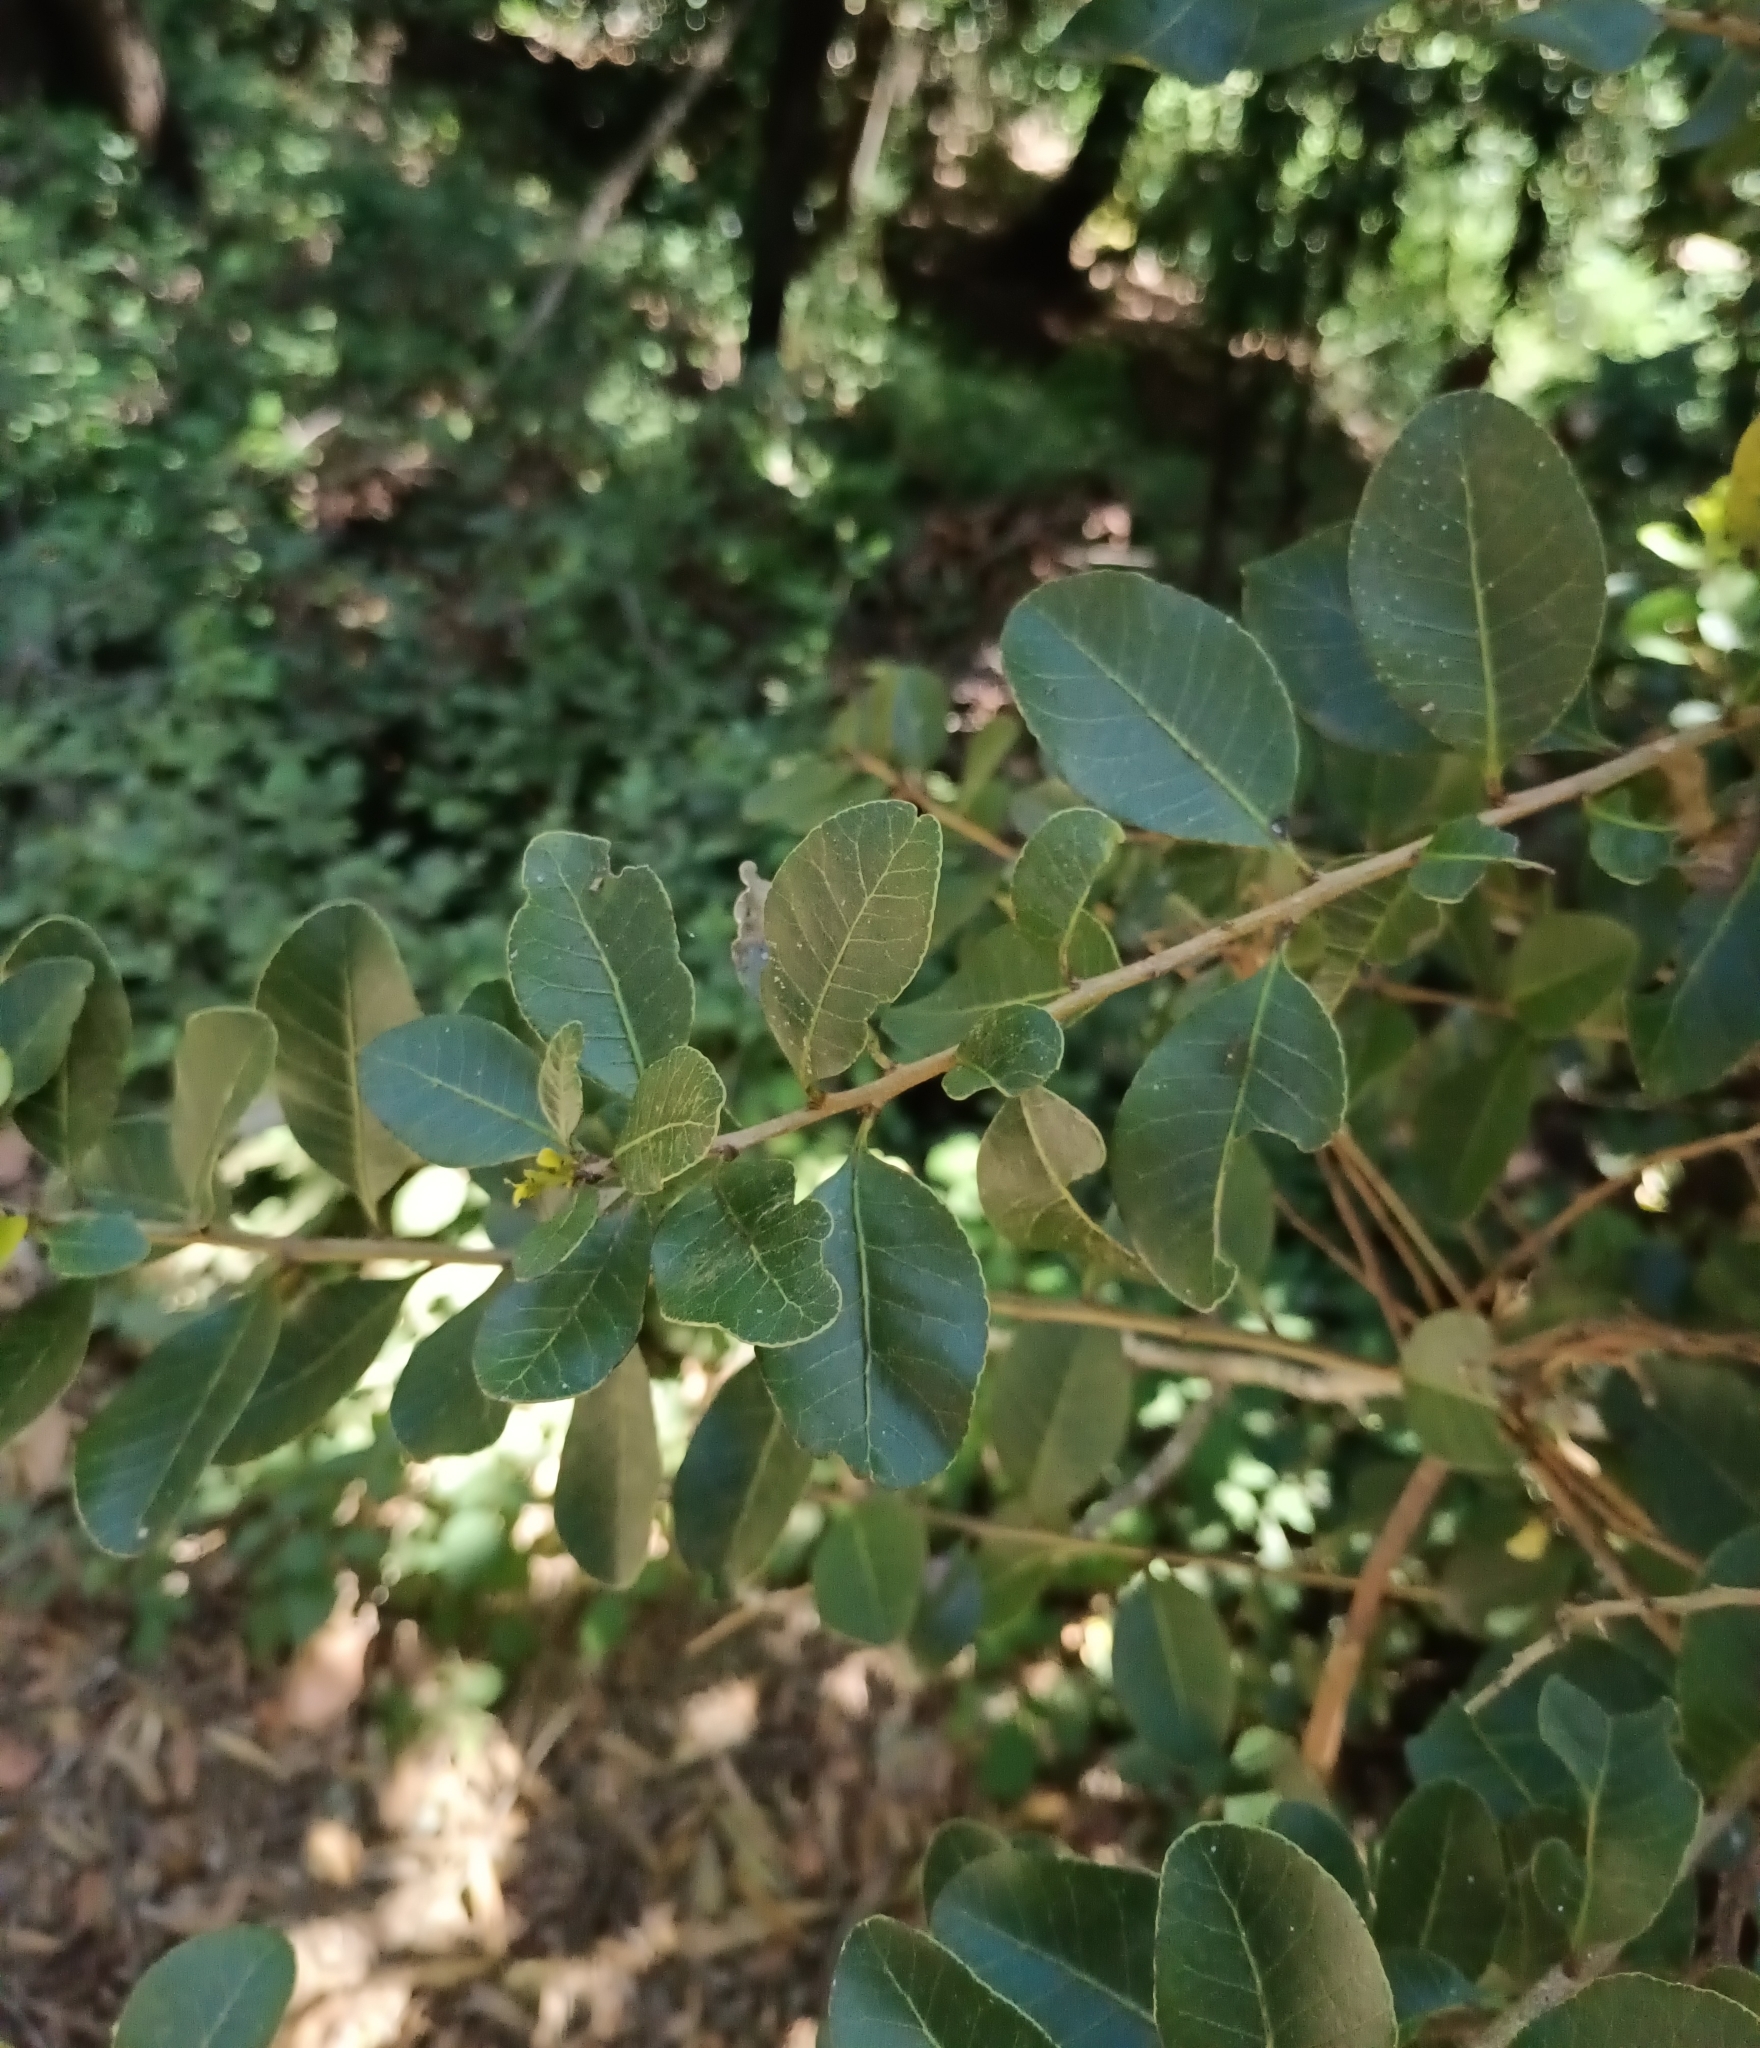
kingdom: Plantae
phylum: Tracheophyta
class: Magnoliopsida
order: Sapindales
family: Anacardiaceae
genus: Lithraea
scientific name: Lithraea caustica
